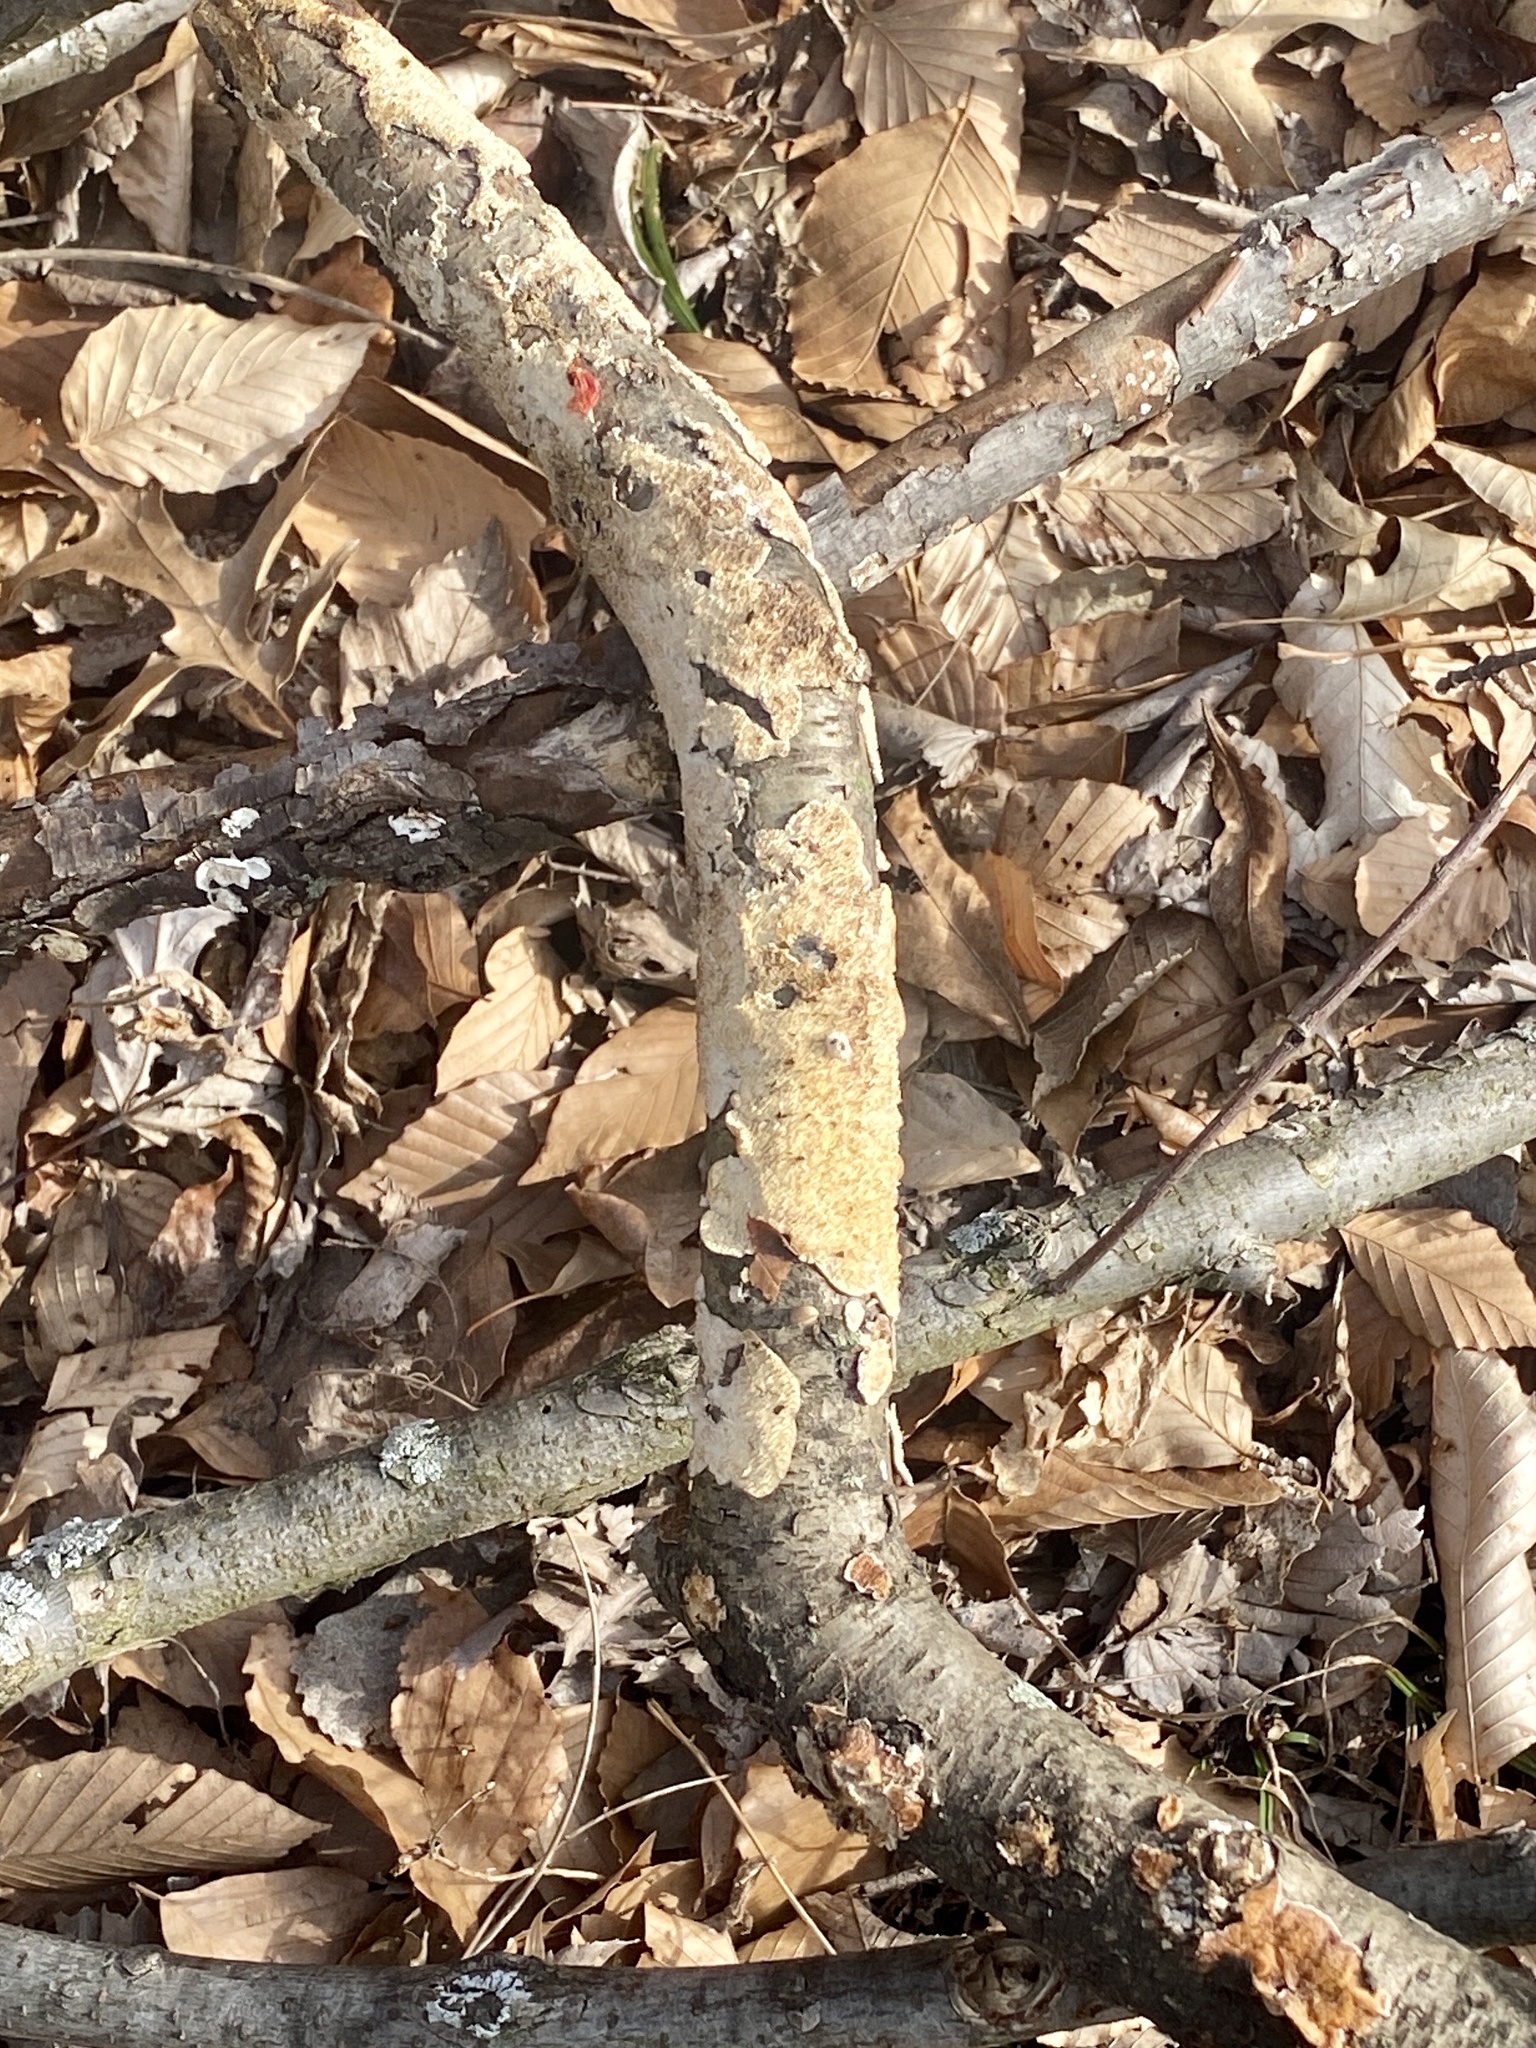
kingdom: Fungi
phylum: Basidiomycota
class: Agaricomycetes
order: Polyporales
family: Irpicaceae
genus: Irpex
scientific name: Irpex lacteus
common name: Milk-white toothed polypore
